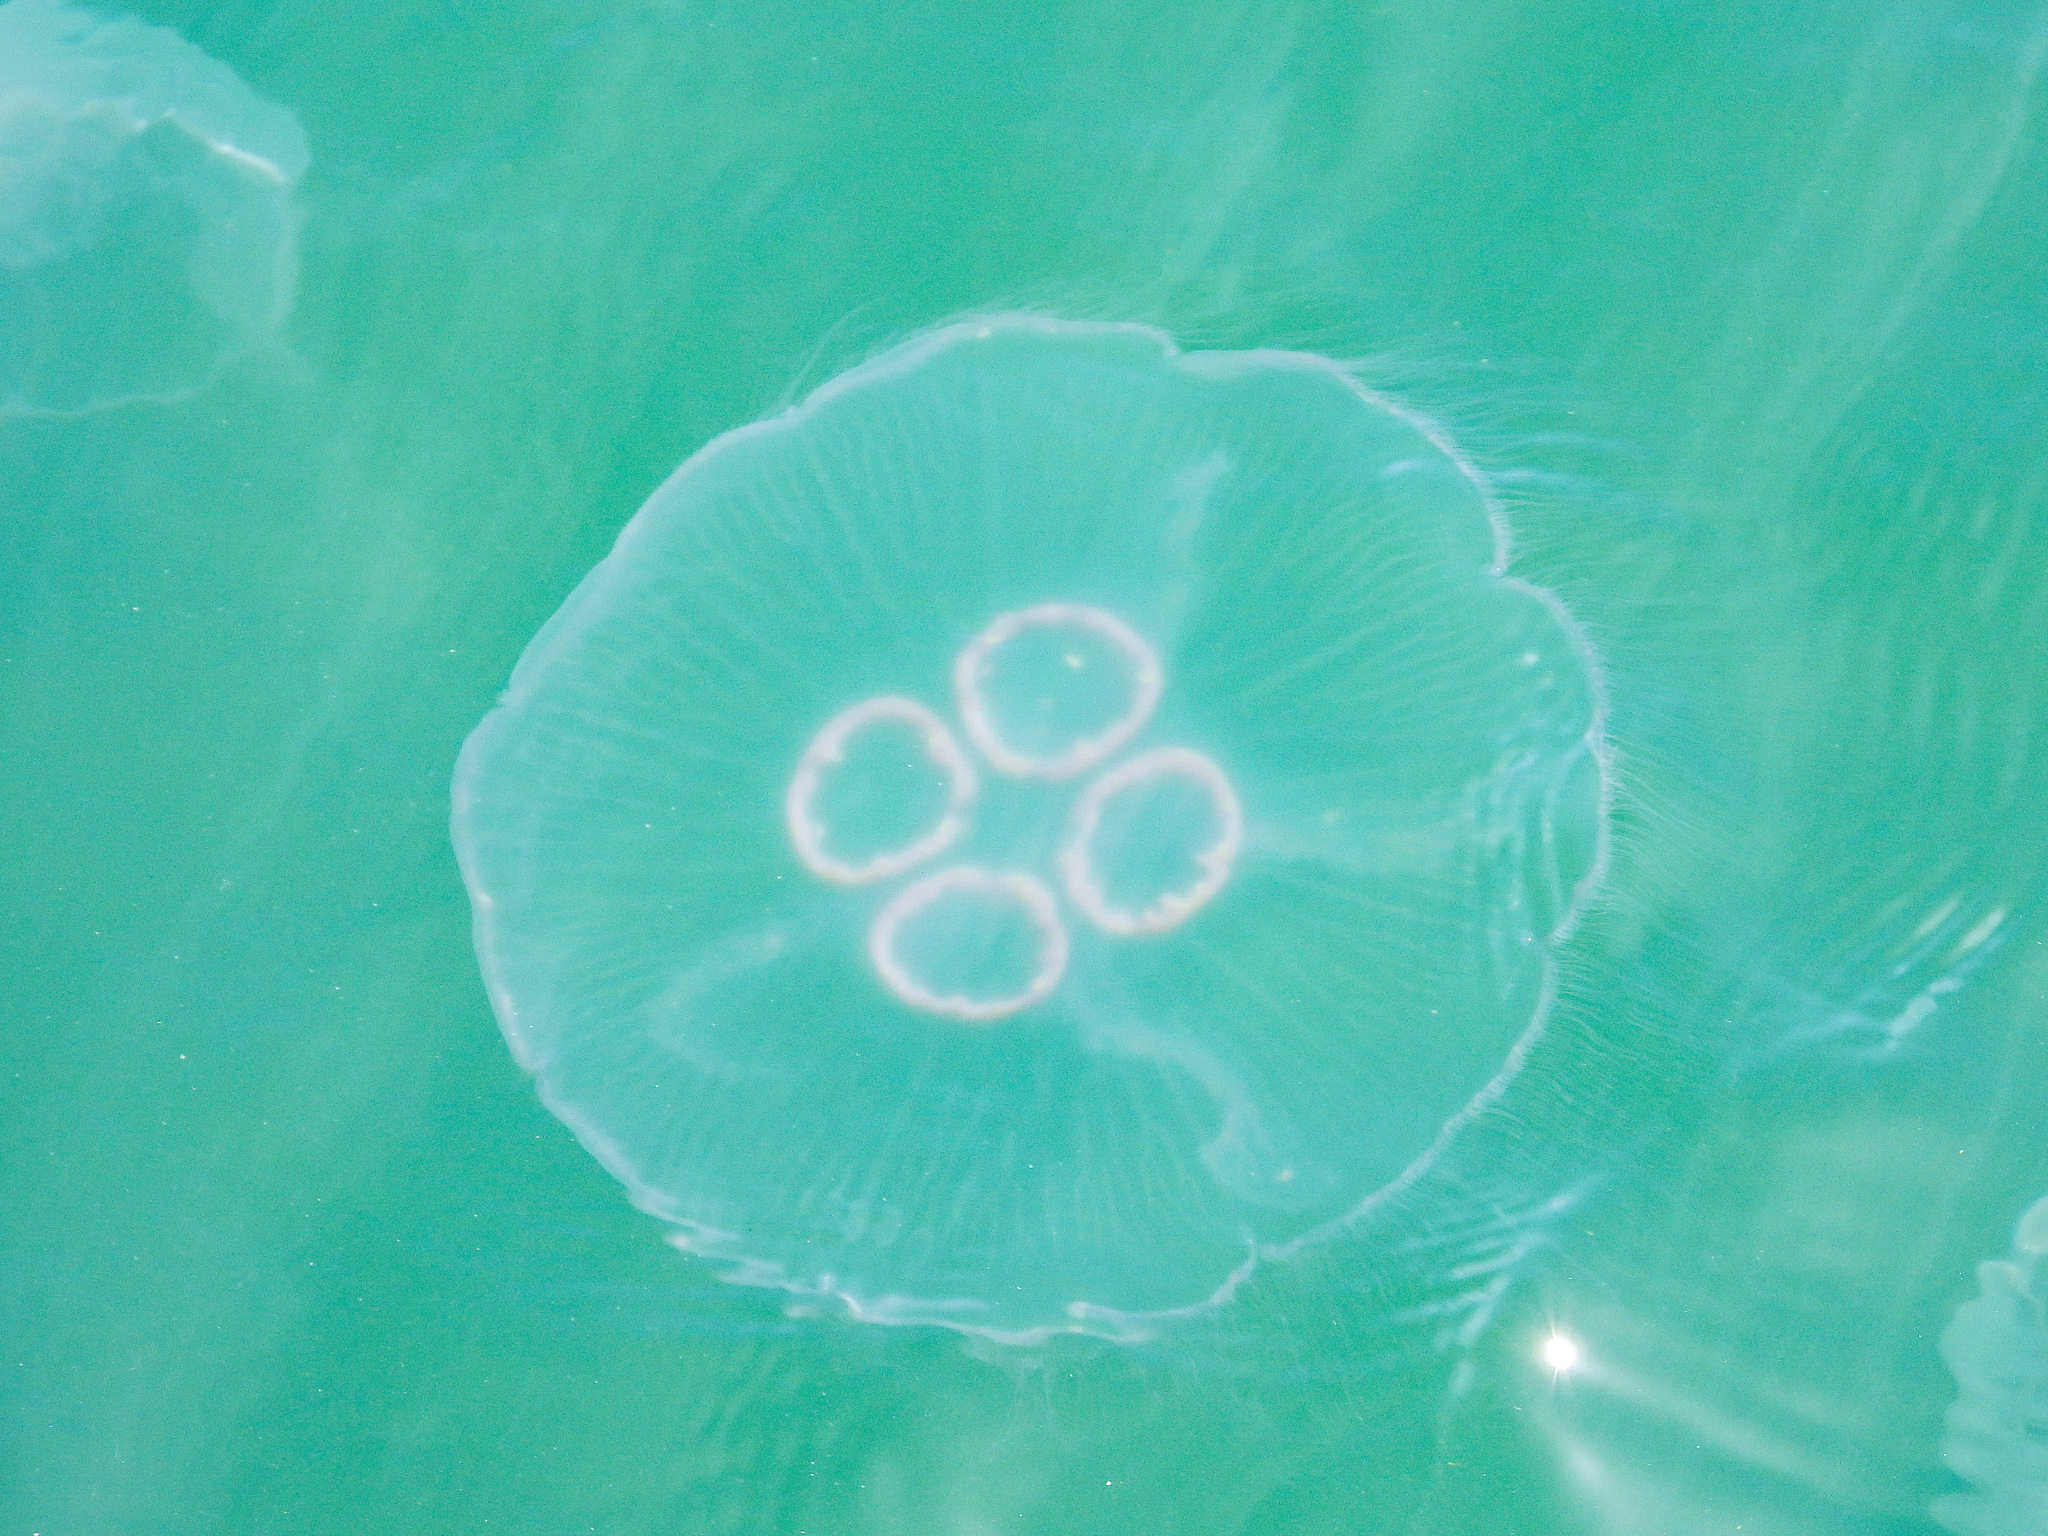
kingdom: Animalia
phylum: Cnidaria
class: Scyphozoa
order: Semaeostomeae
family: Ulmaridae
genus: Aurelia
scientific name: Aurelia coerulea
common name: Moon jellyfish
